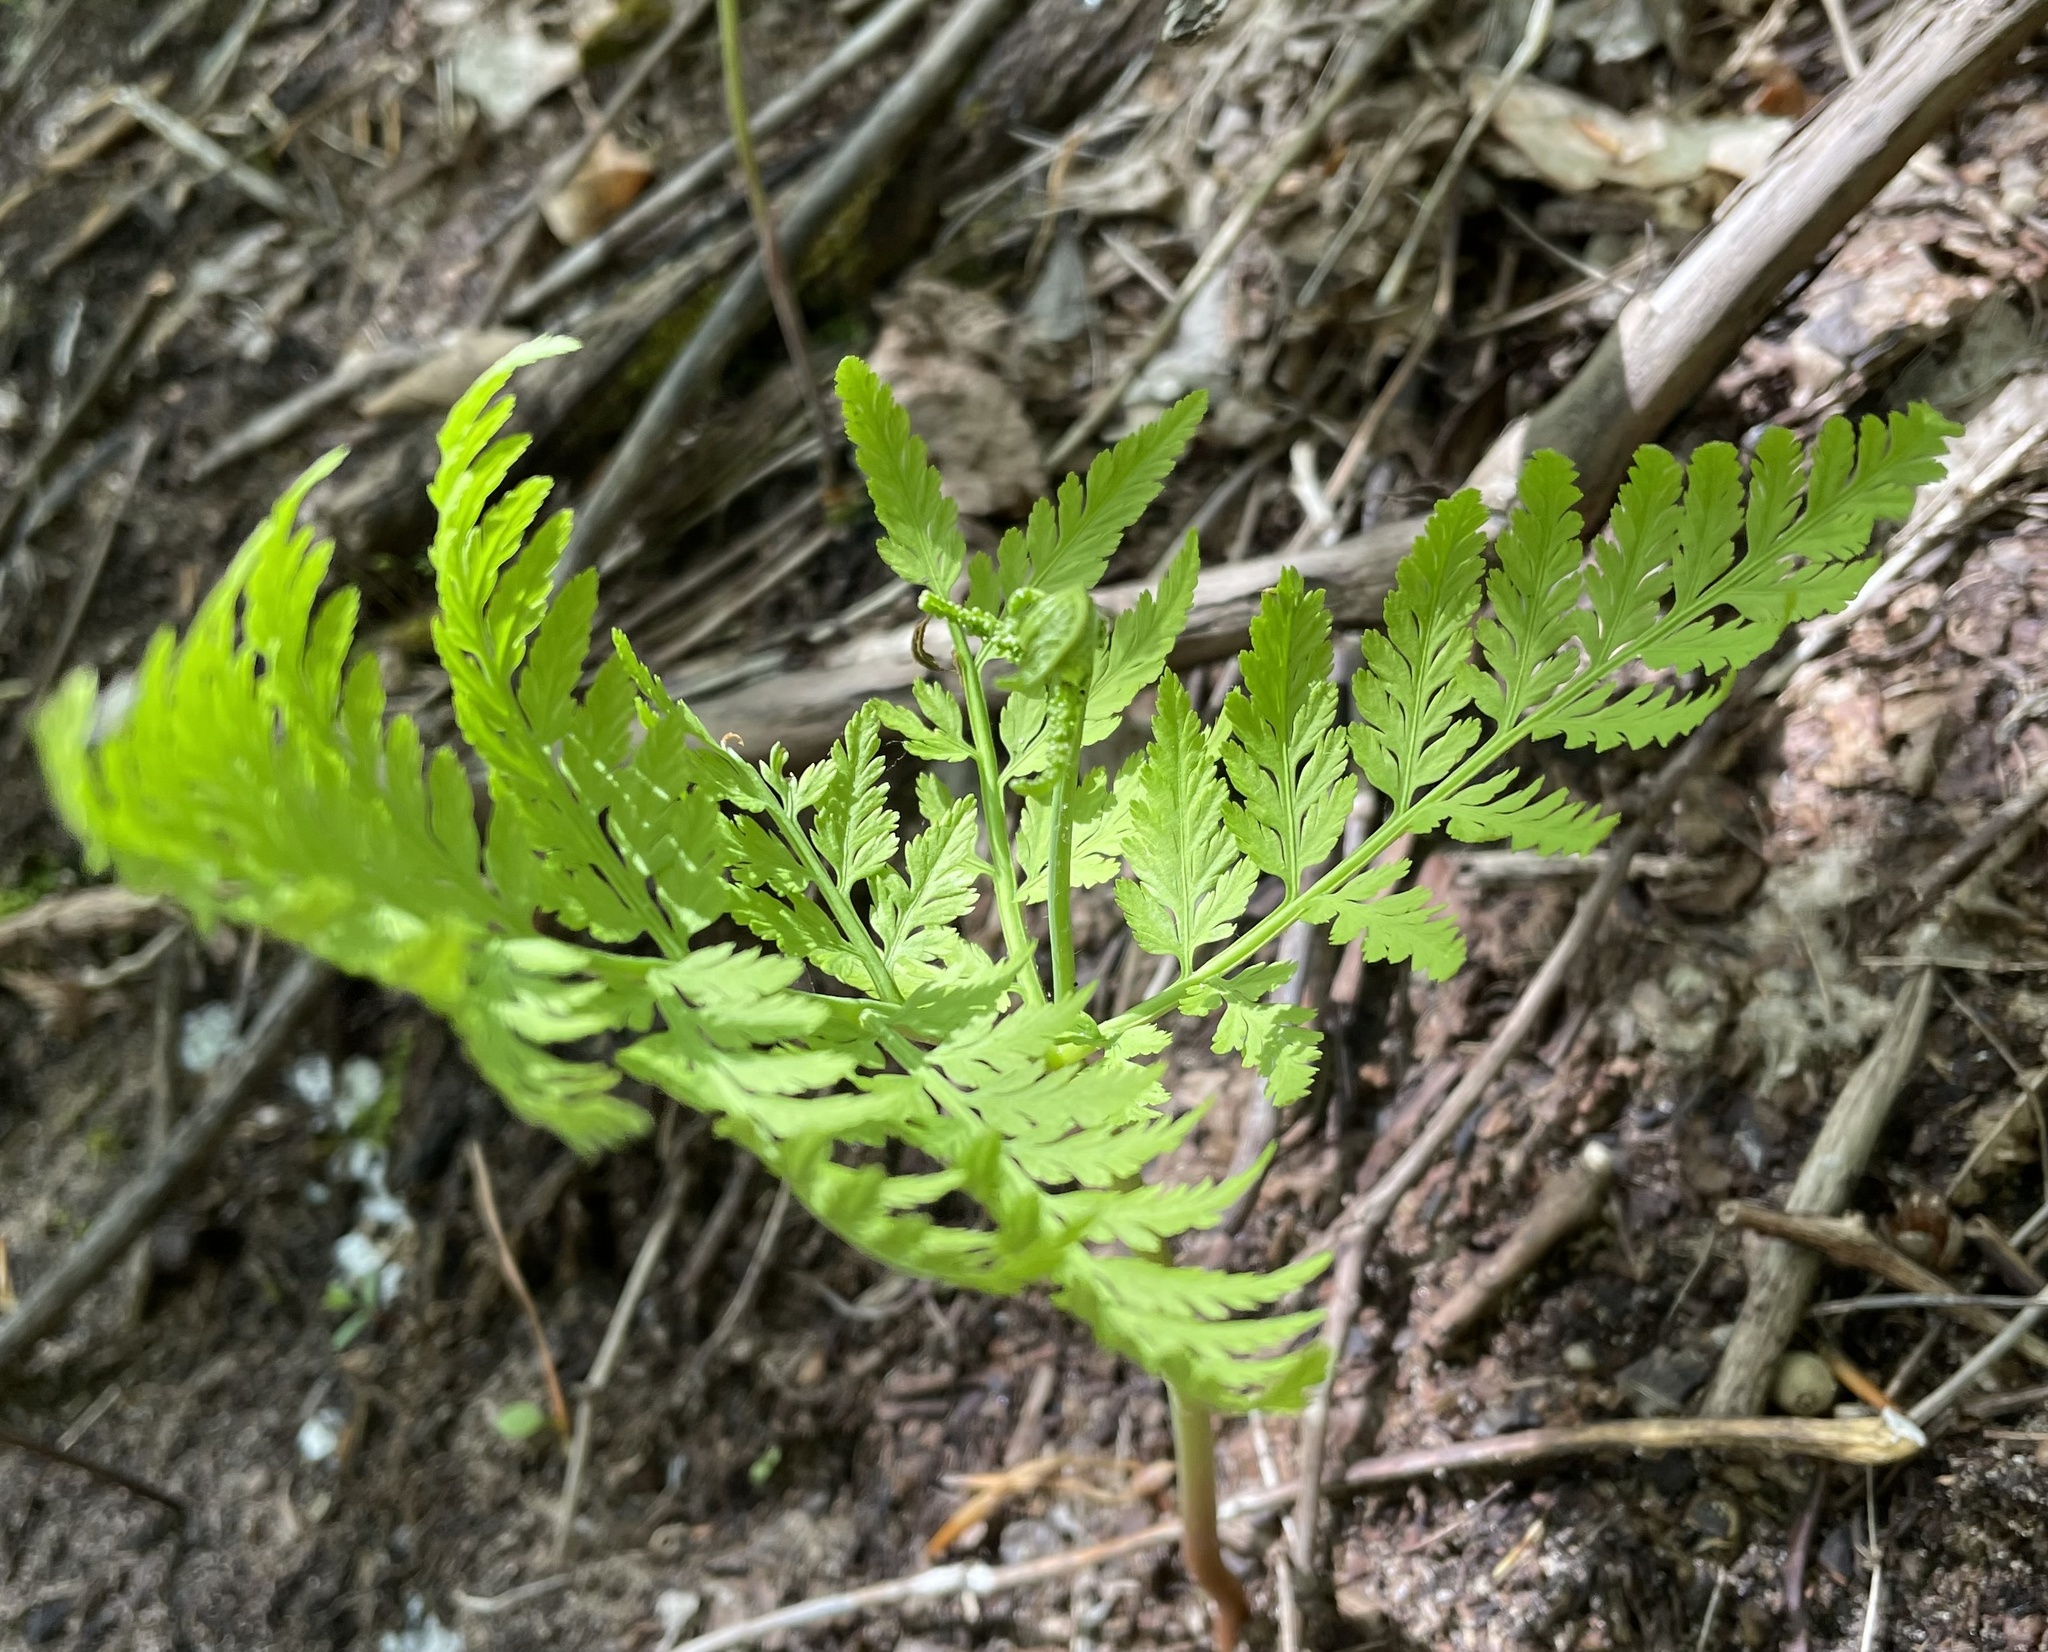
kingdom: Plantae
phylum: Tracheophyta
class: Polypodiopsida
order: Ophioglossales
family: Ophioglossaceae
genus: Botrypus
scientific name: Botrypus virginianus
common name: Common grapefern
